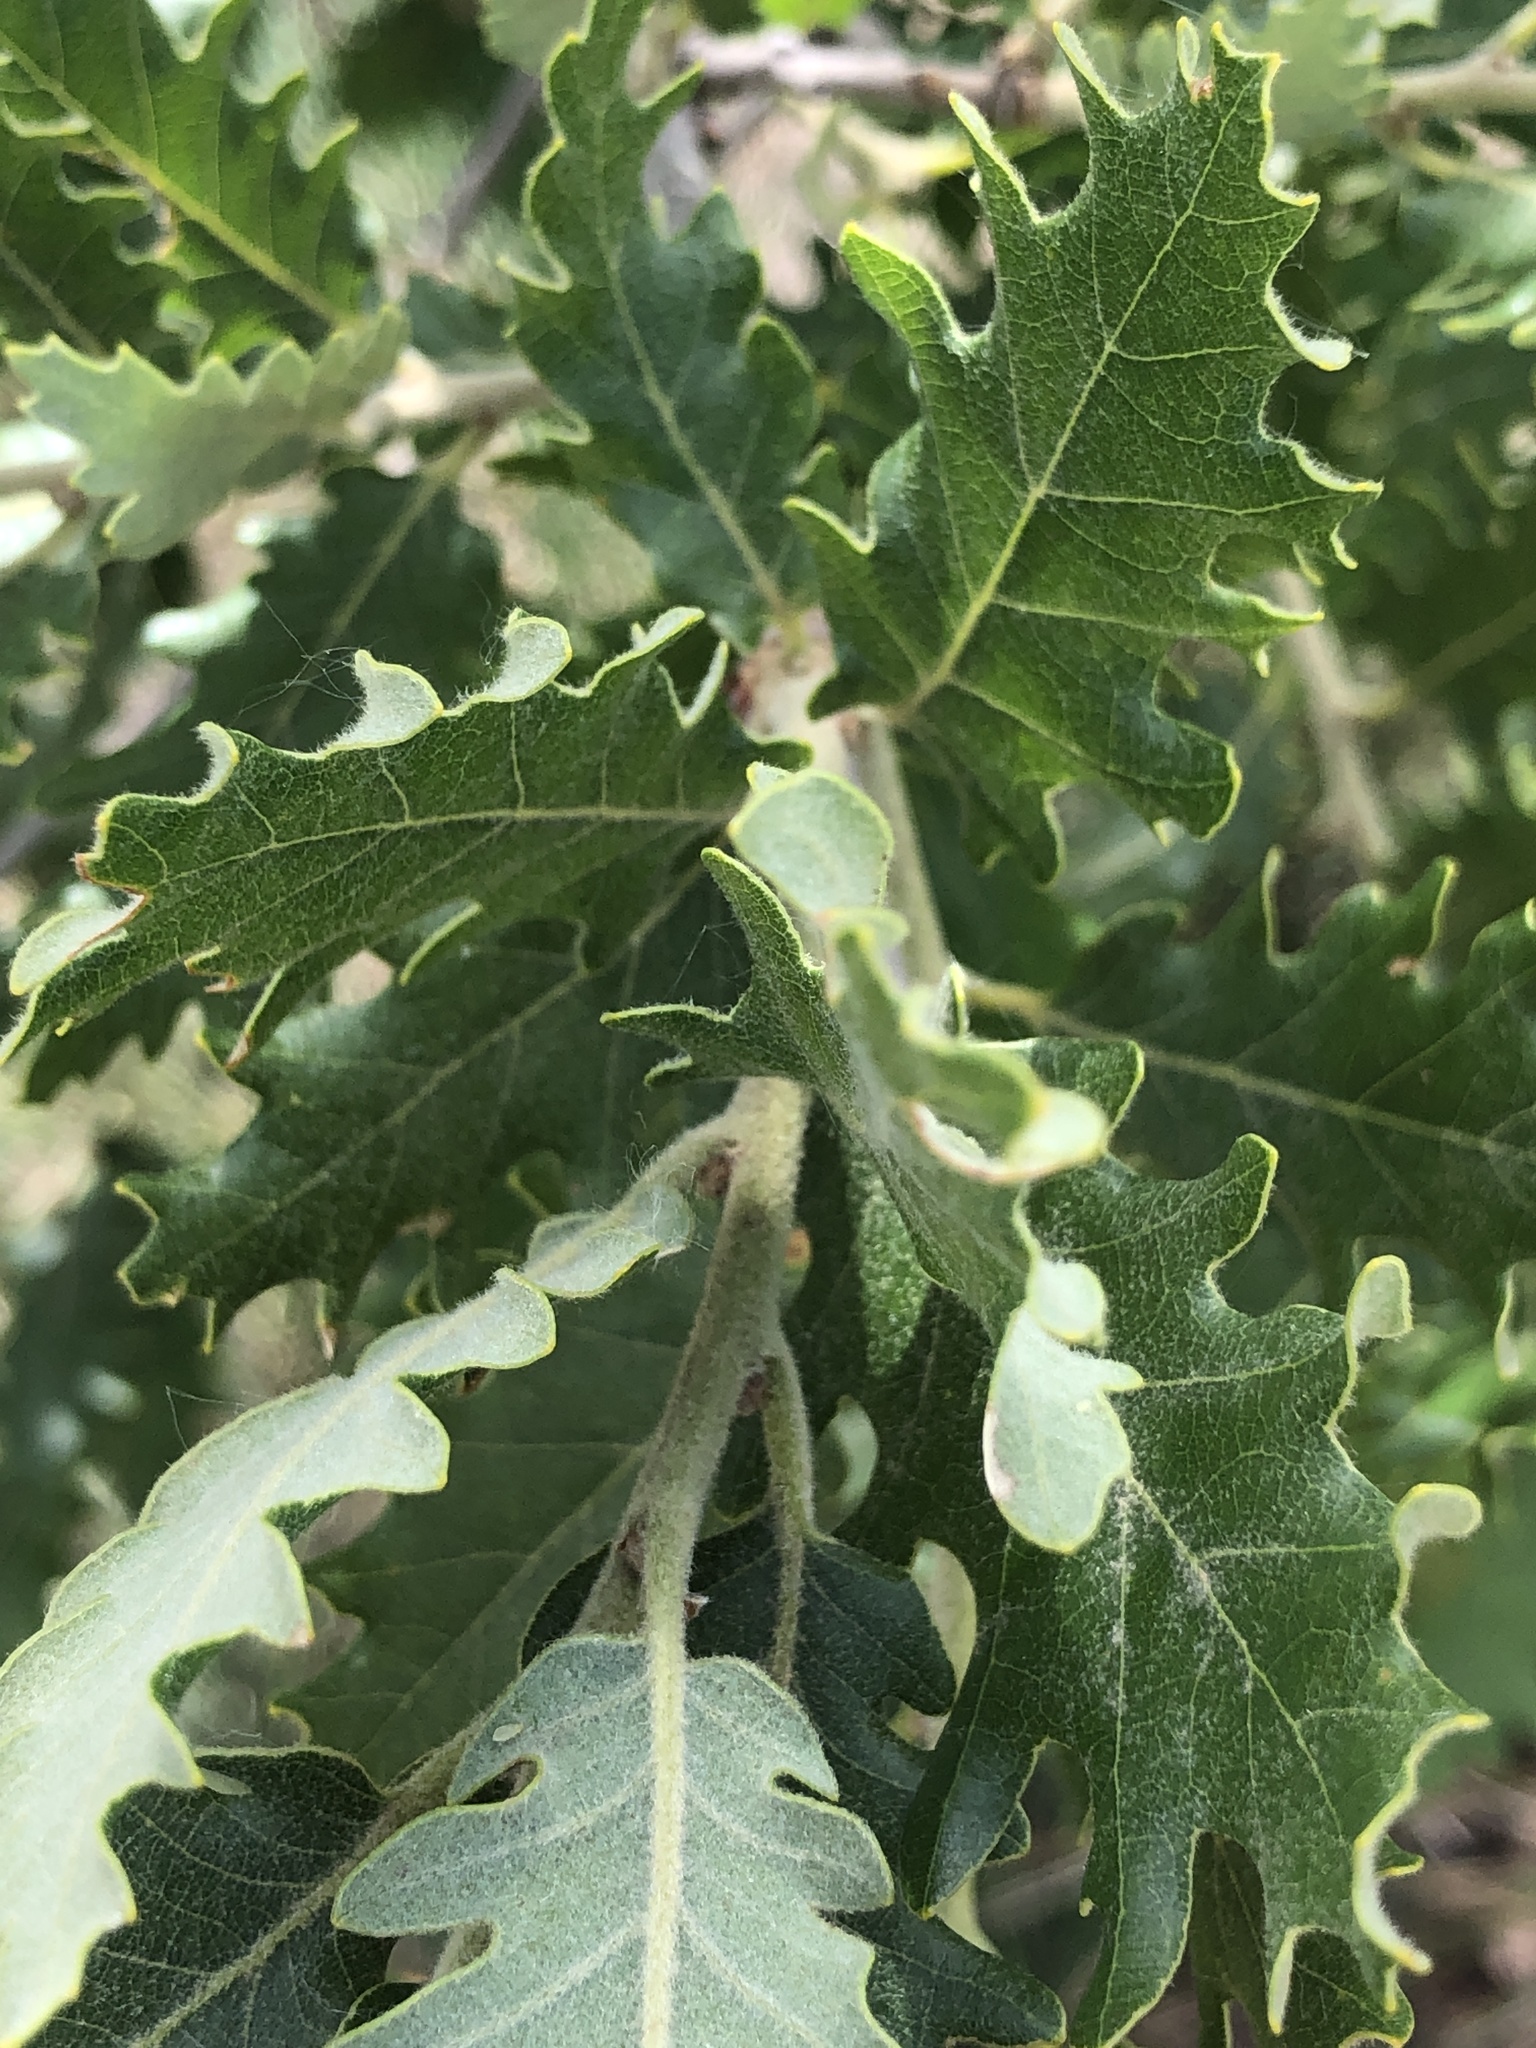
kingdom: Plantae
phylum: Tracheophyta
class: Magnoliopsida
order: Fagales
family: Fagaceae
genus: Quercus
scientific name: Quercus pubescens
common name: Downy oak
